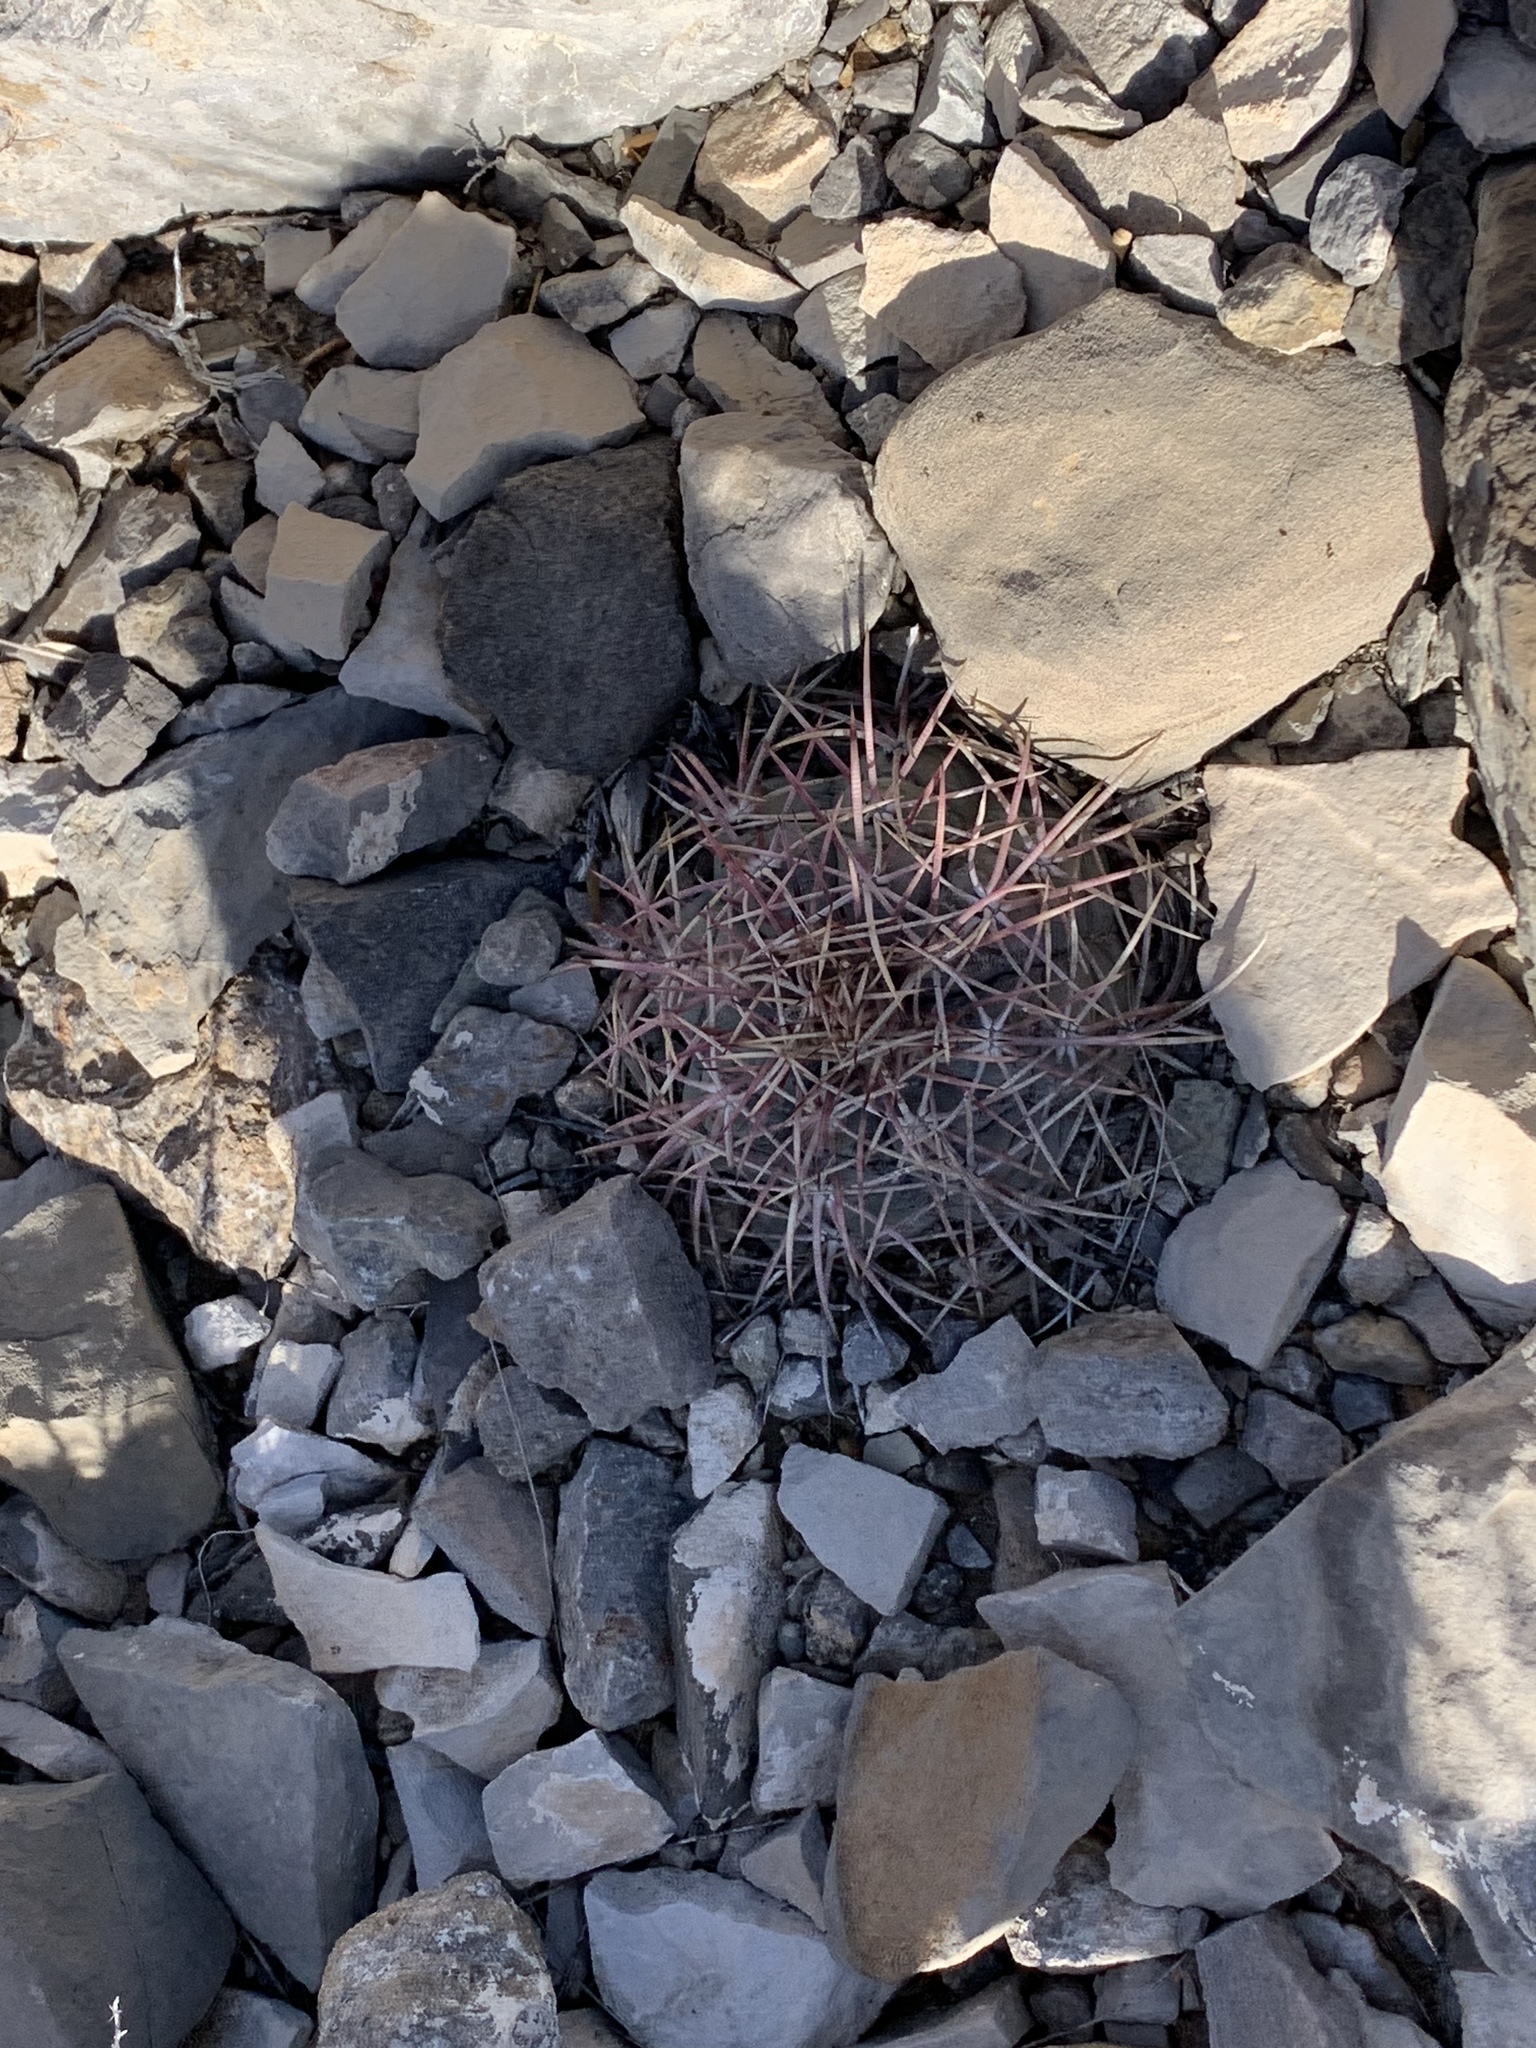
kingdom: Plantae
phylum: Tracheophyta
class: Magnoliopsida
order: Caryophyllales
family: Cactaceae
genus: Echinocactus
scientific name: Echinocactus horizonthalonius
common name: Devilshead
